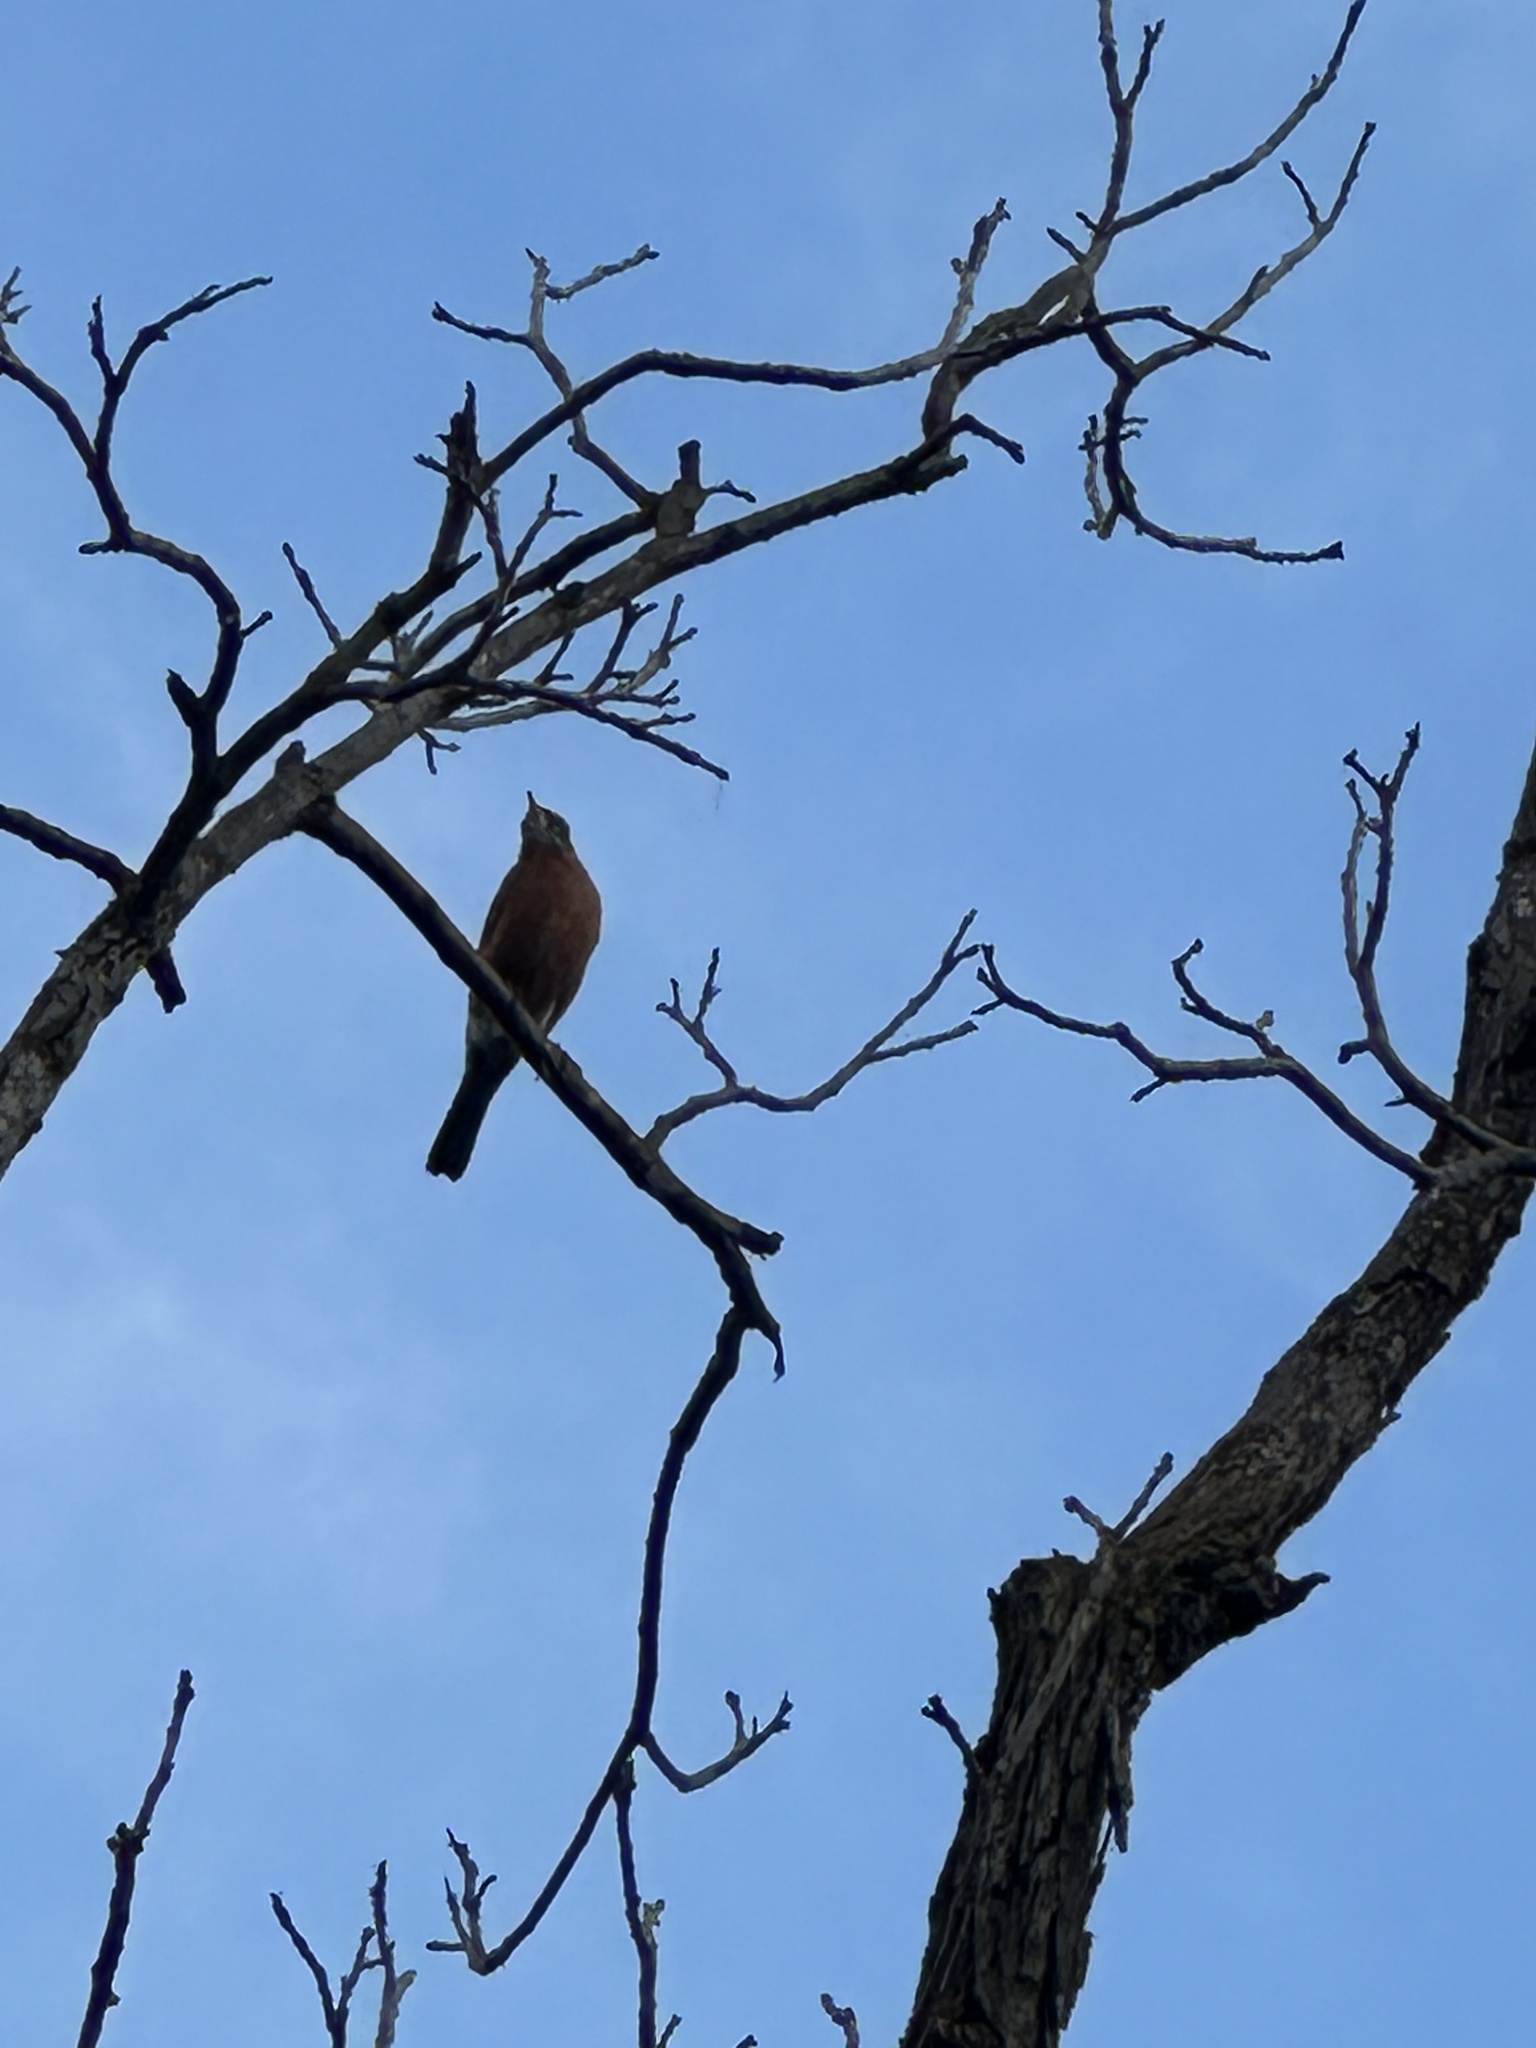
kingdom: Animalia
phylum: Chordata
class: Aves
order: Passeriformes
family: Turdidae
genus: Turdus
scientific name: Turdus migratorius
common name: American robin
